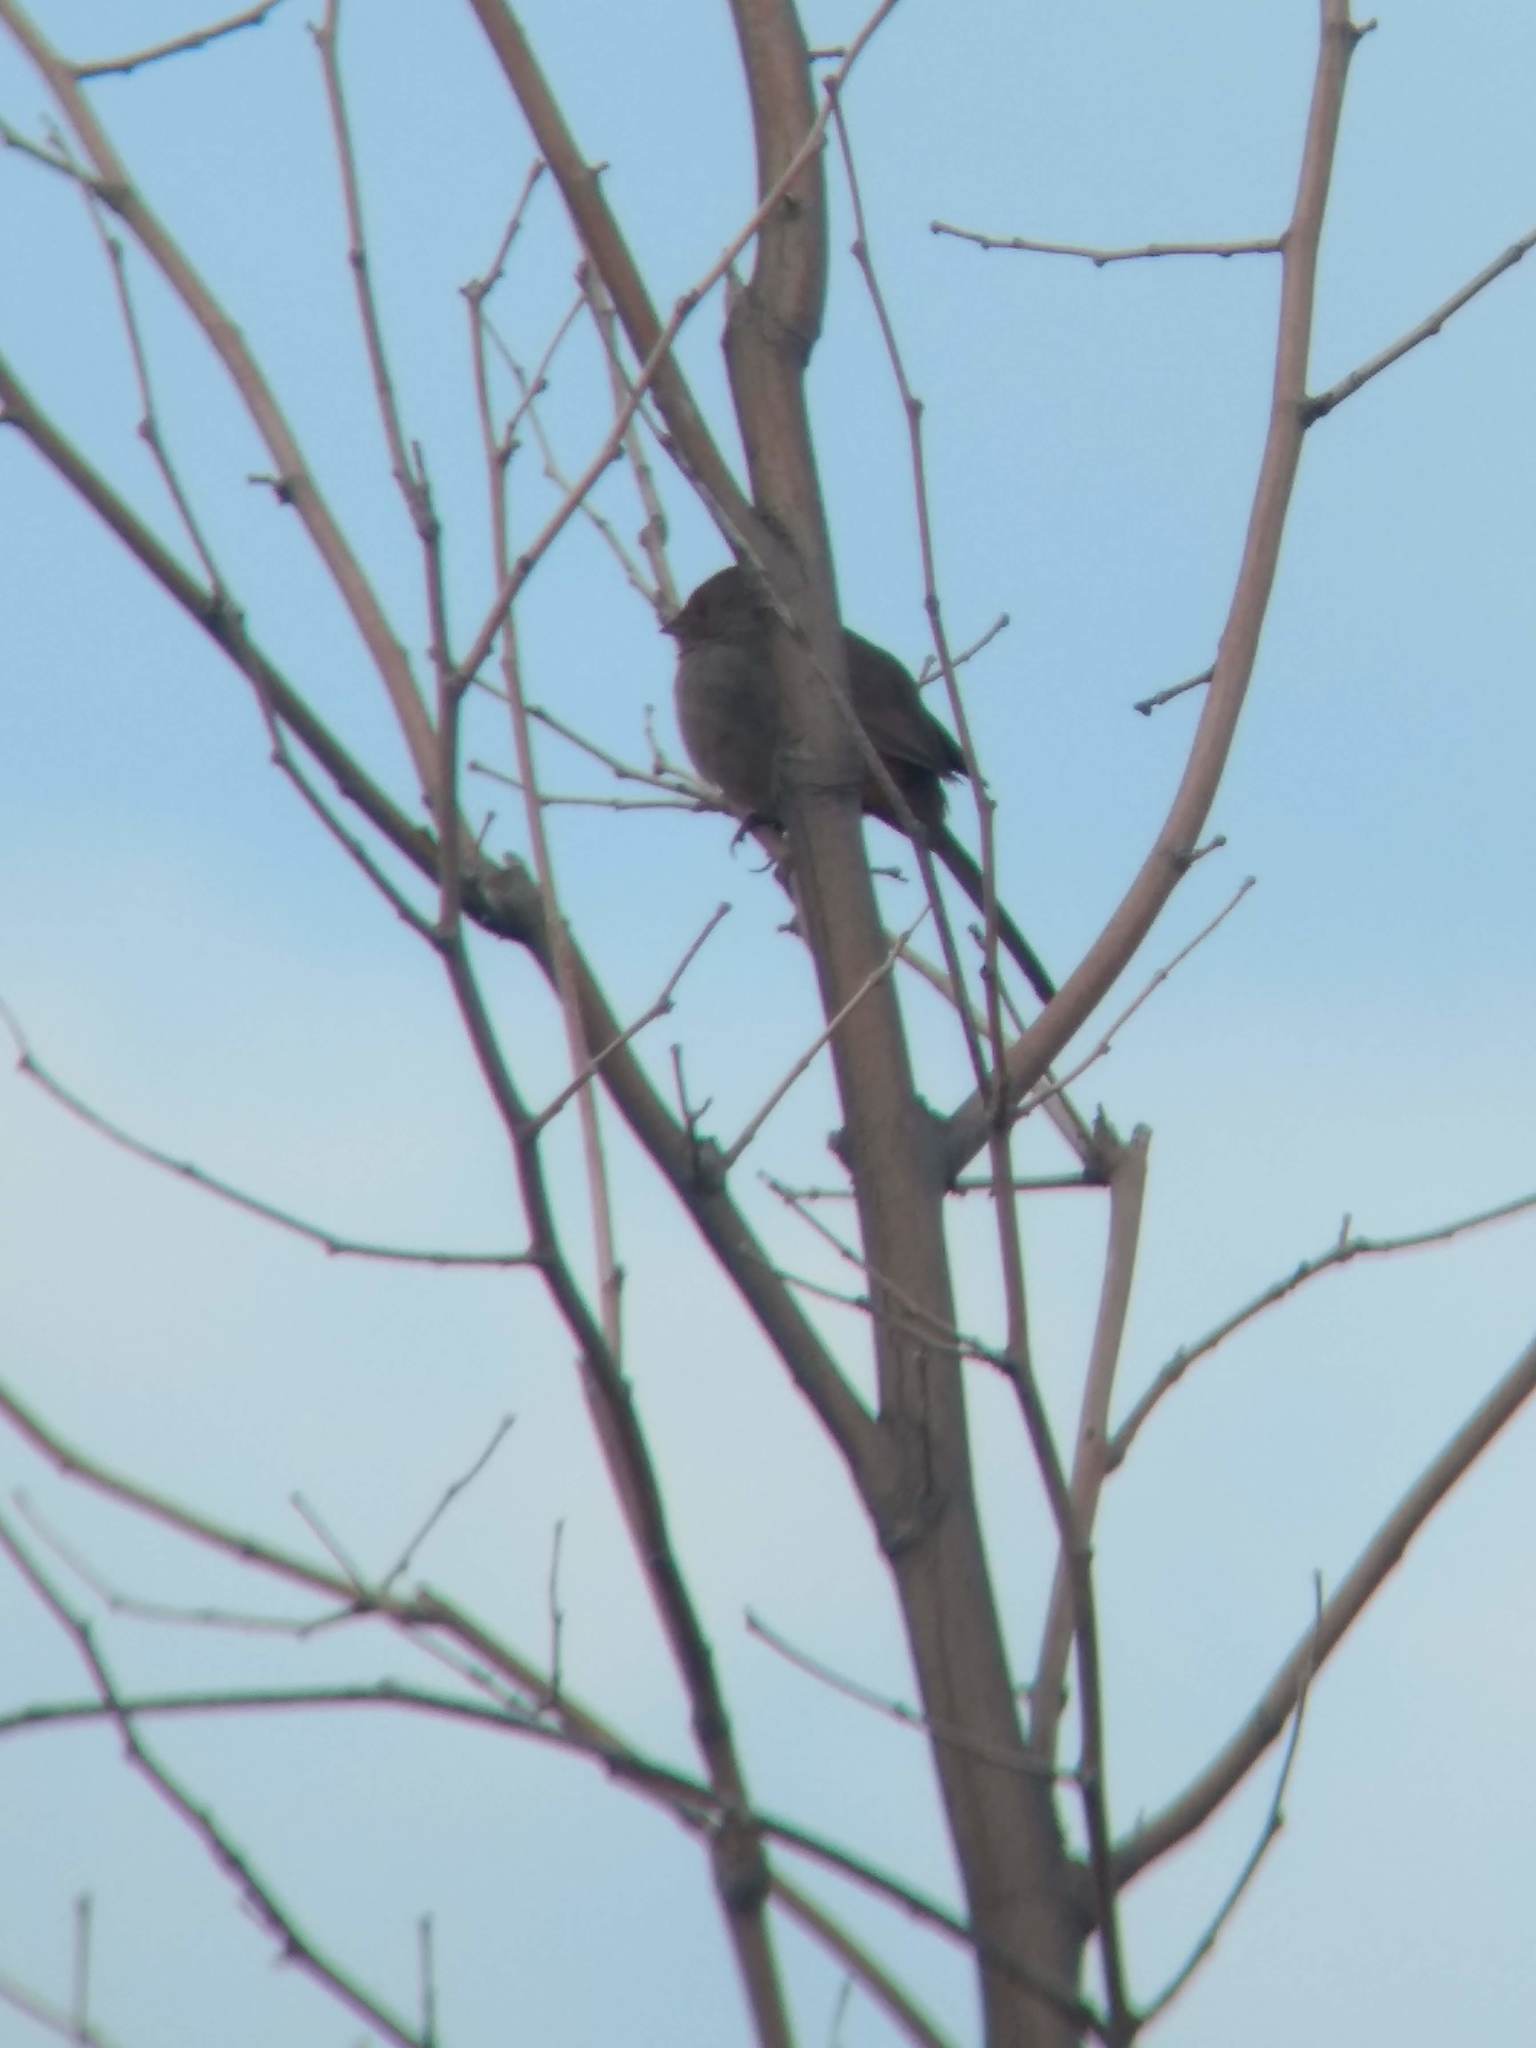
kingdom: Animalia
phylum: Chordata
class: Aves
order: Passeriformes
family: Passerellidae
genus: Melozone
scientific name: Melozone crissalis
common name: California towhee
